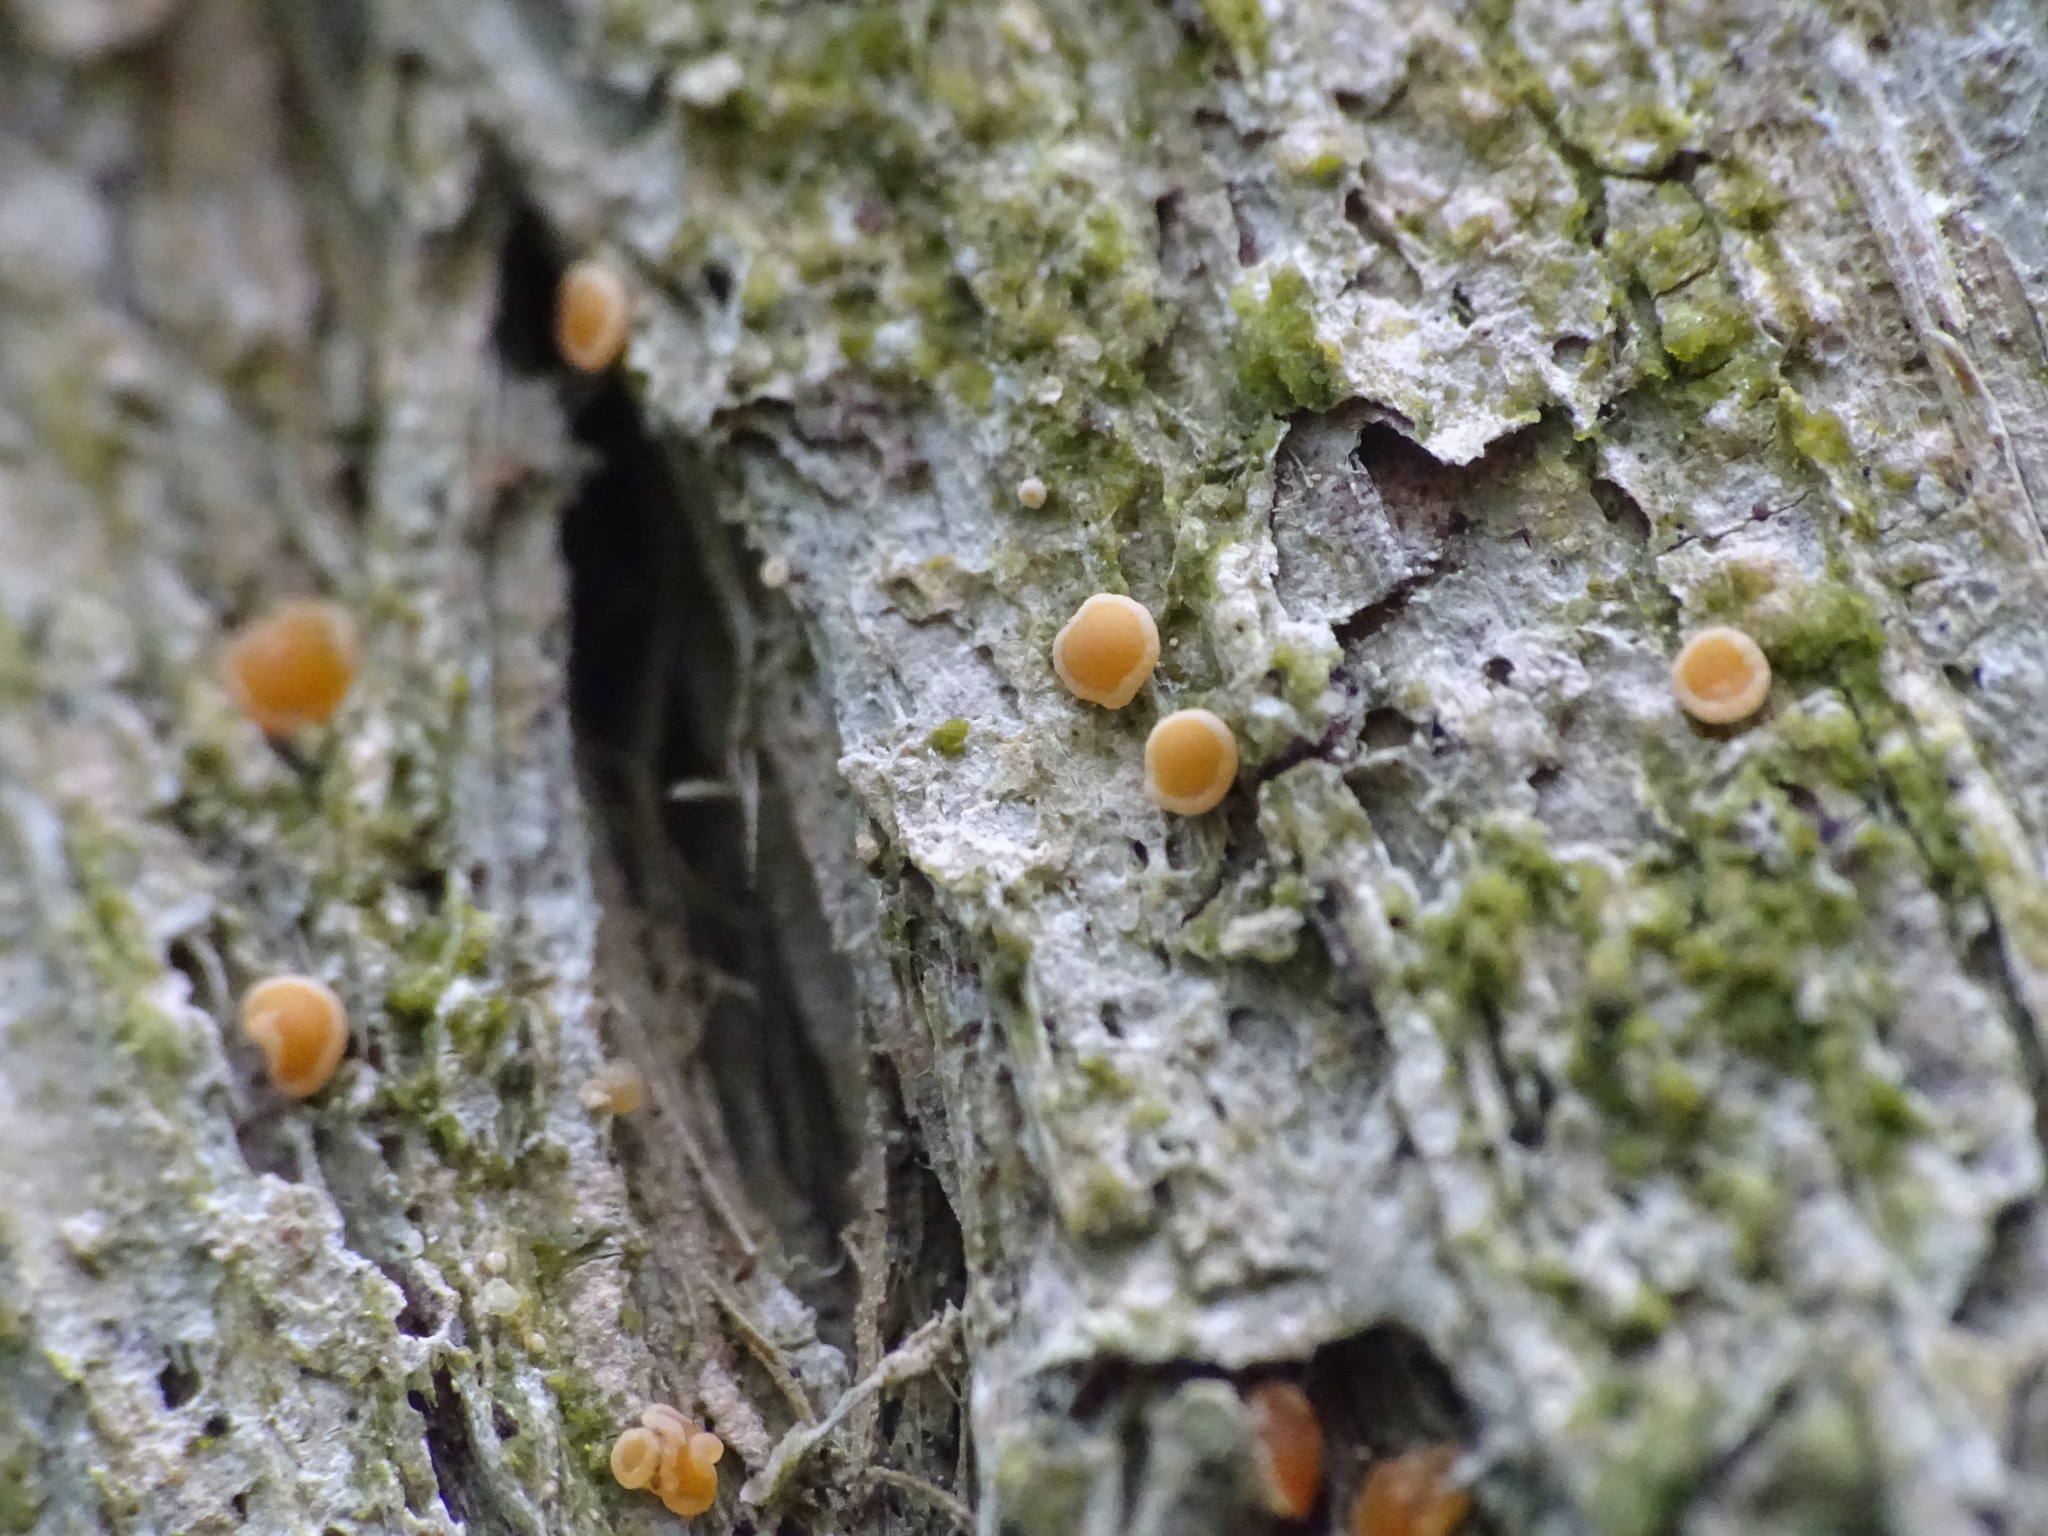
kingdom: Fungi
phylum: Ascomycota
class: Lecanoromycetes
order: Ostropales
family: Coenogoniaceae
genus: Coenogonium
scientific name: Coenogonium luteum
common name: Orange dimple lichen
